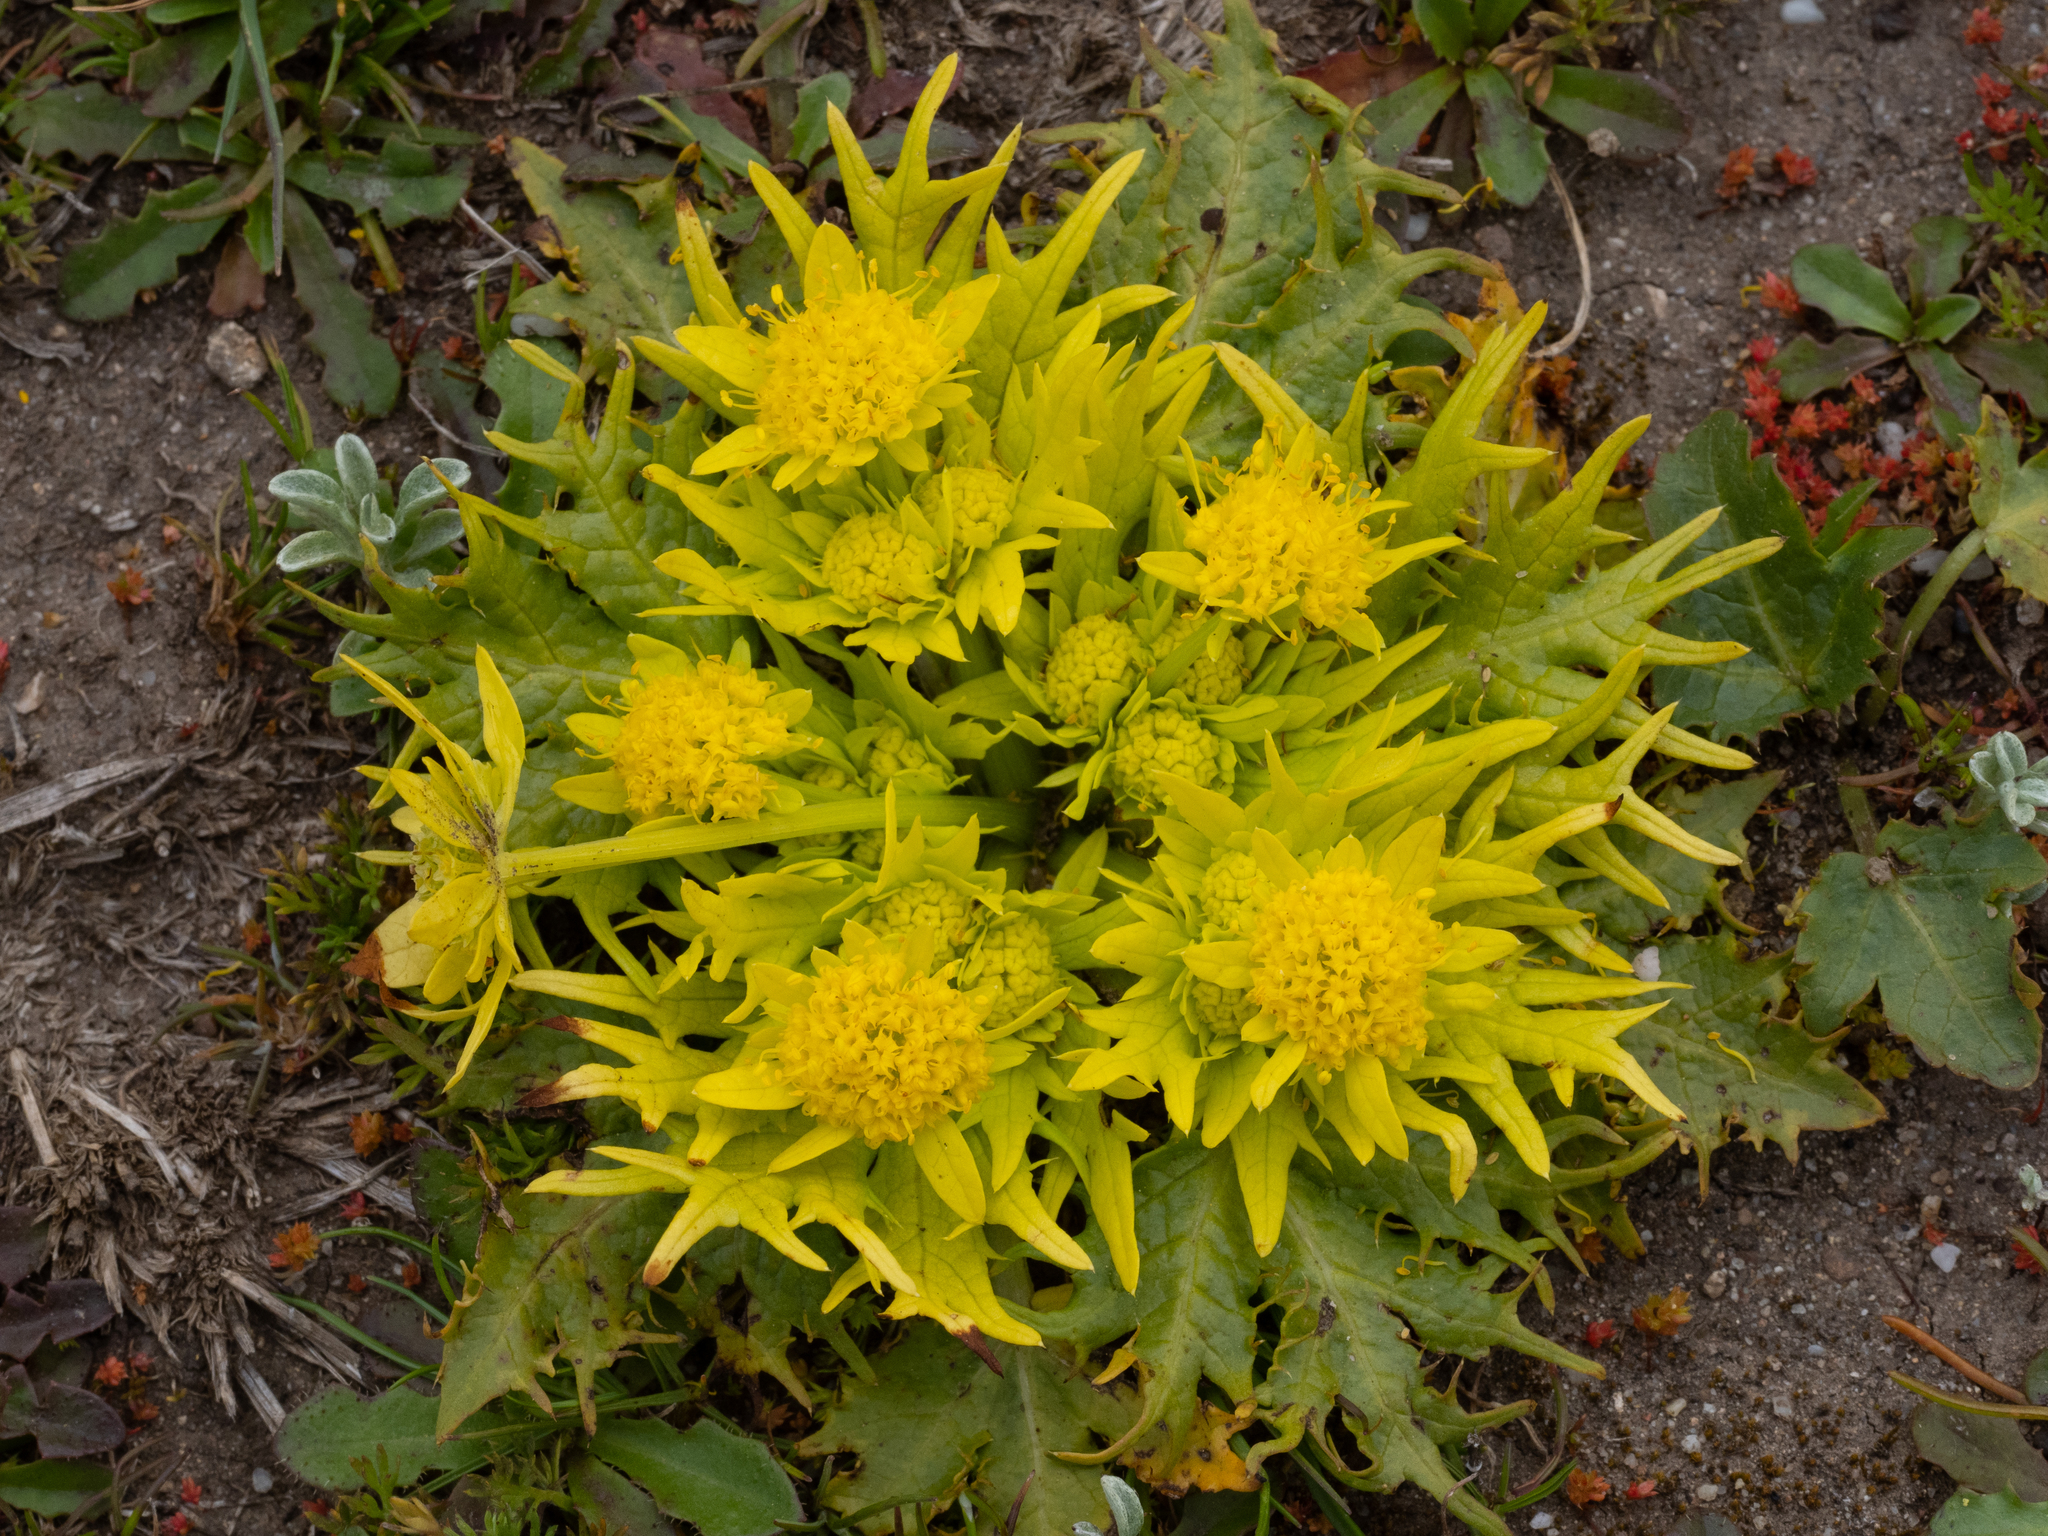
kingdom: Plantae
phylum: Tracheophyta
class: Magnoliopsida
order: Apiales
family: Apiaceae
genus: Sanicula
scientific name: Sanicula arctopoides
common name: Footsteps-of-spring
